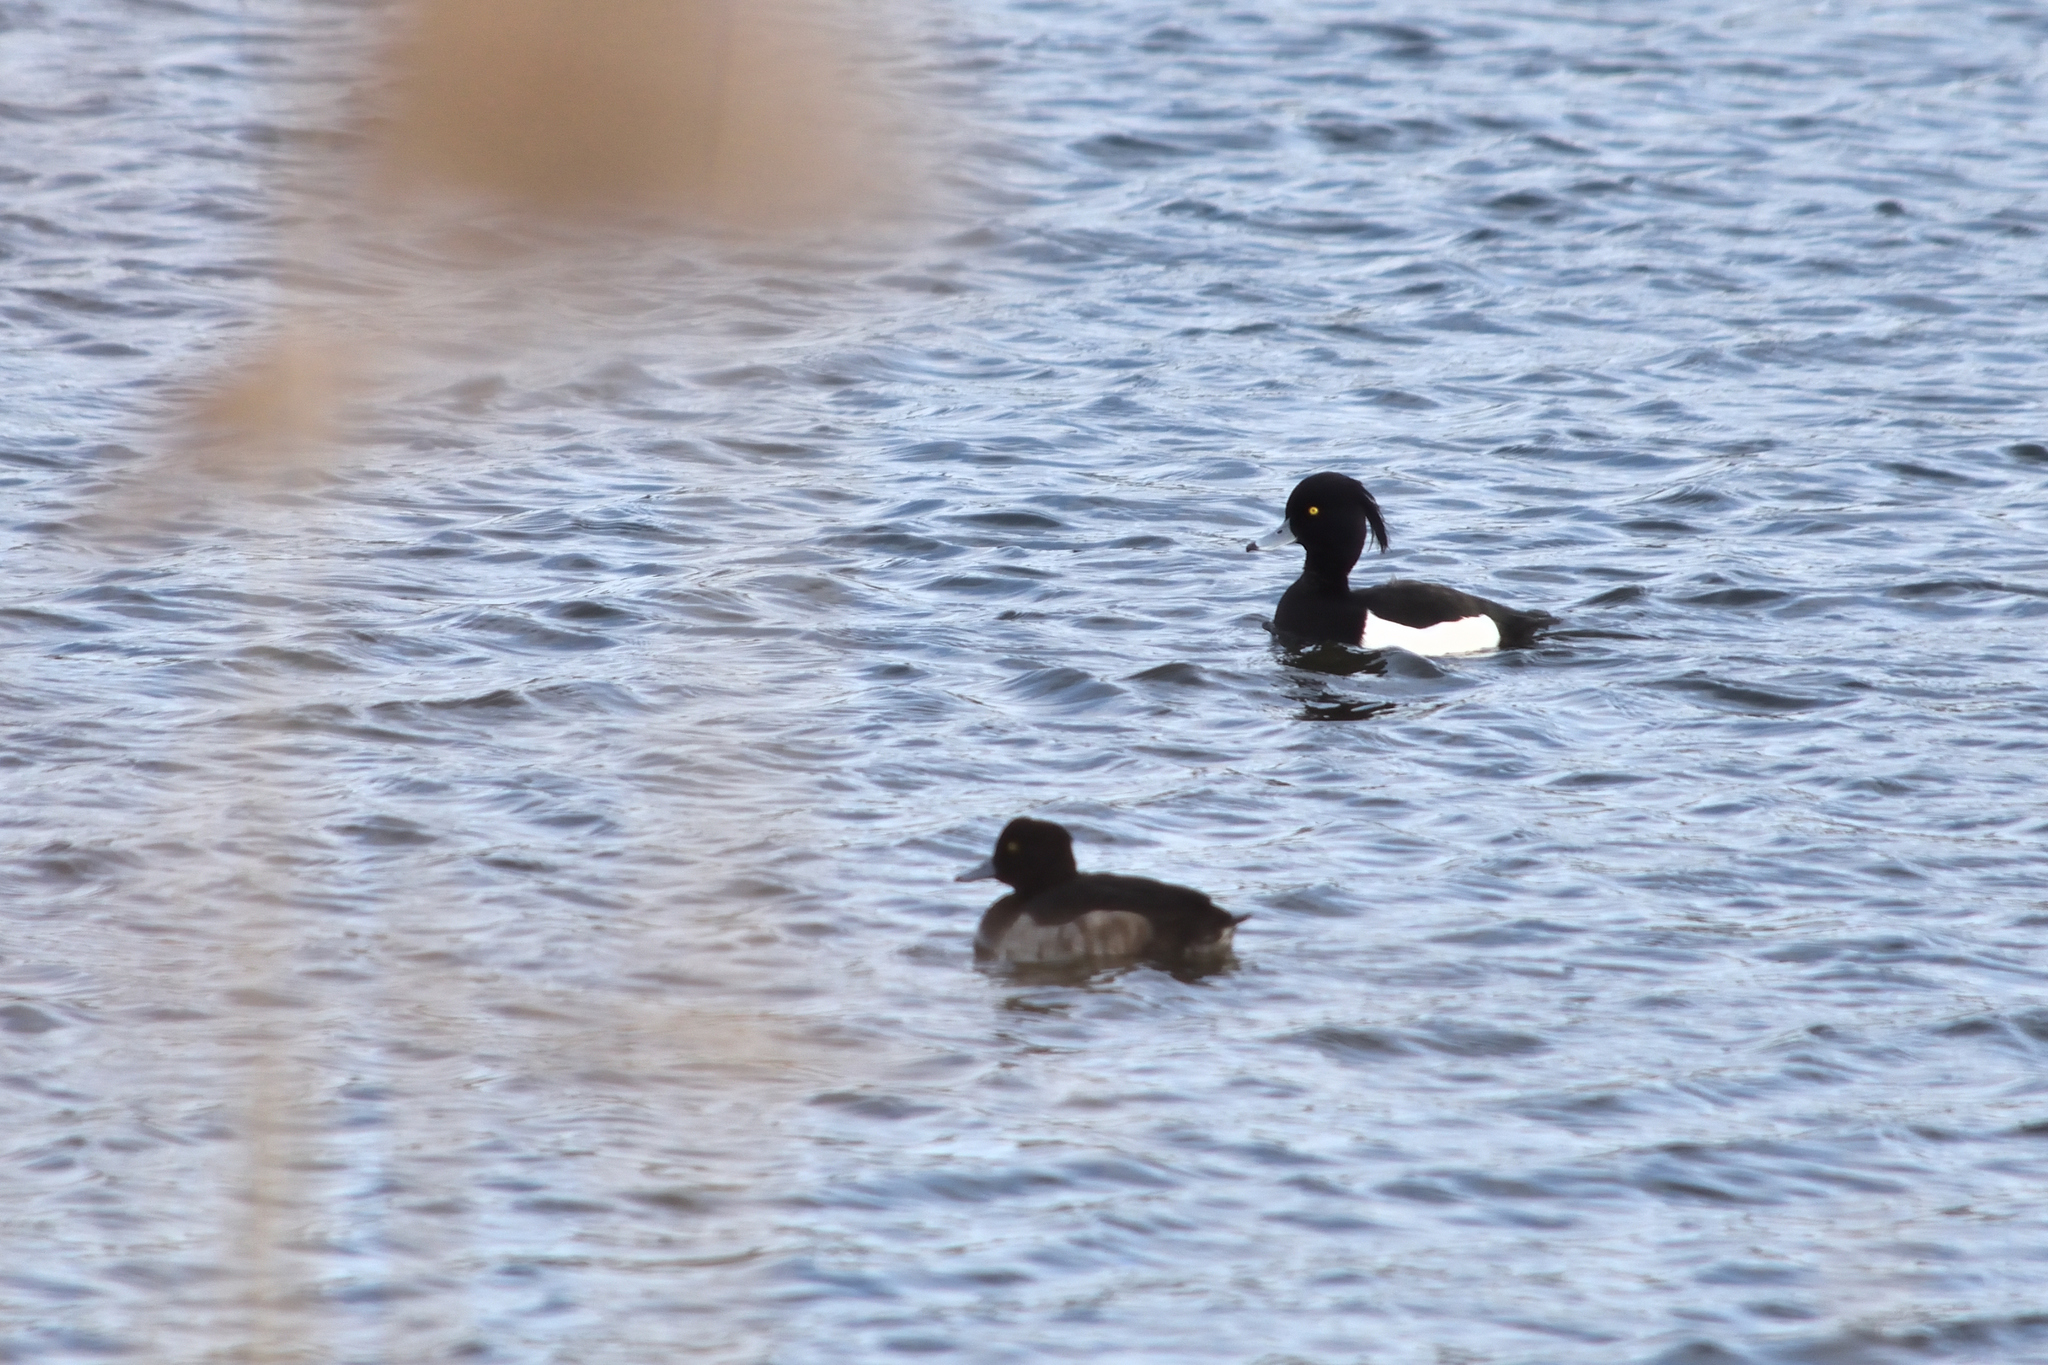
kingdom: Animalia
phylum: Chordata
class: Aves
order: Anseriformes
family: Anatidae
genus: Aythya
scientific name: Aythya fuligula
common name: Tufted duck
